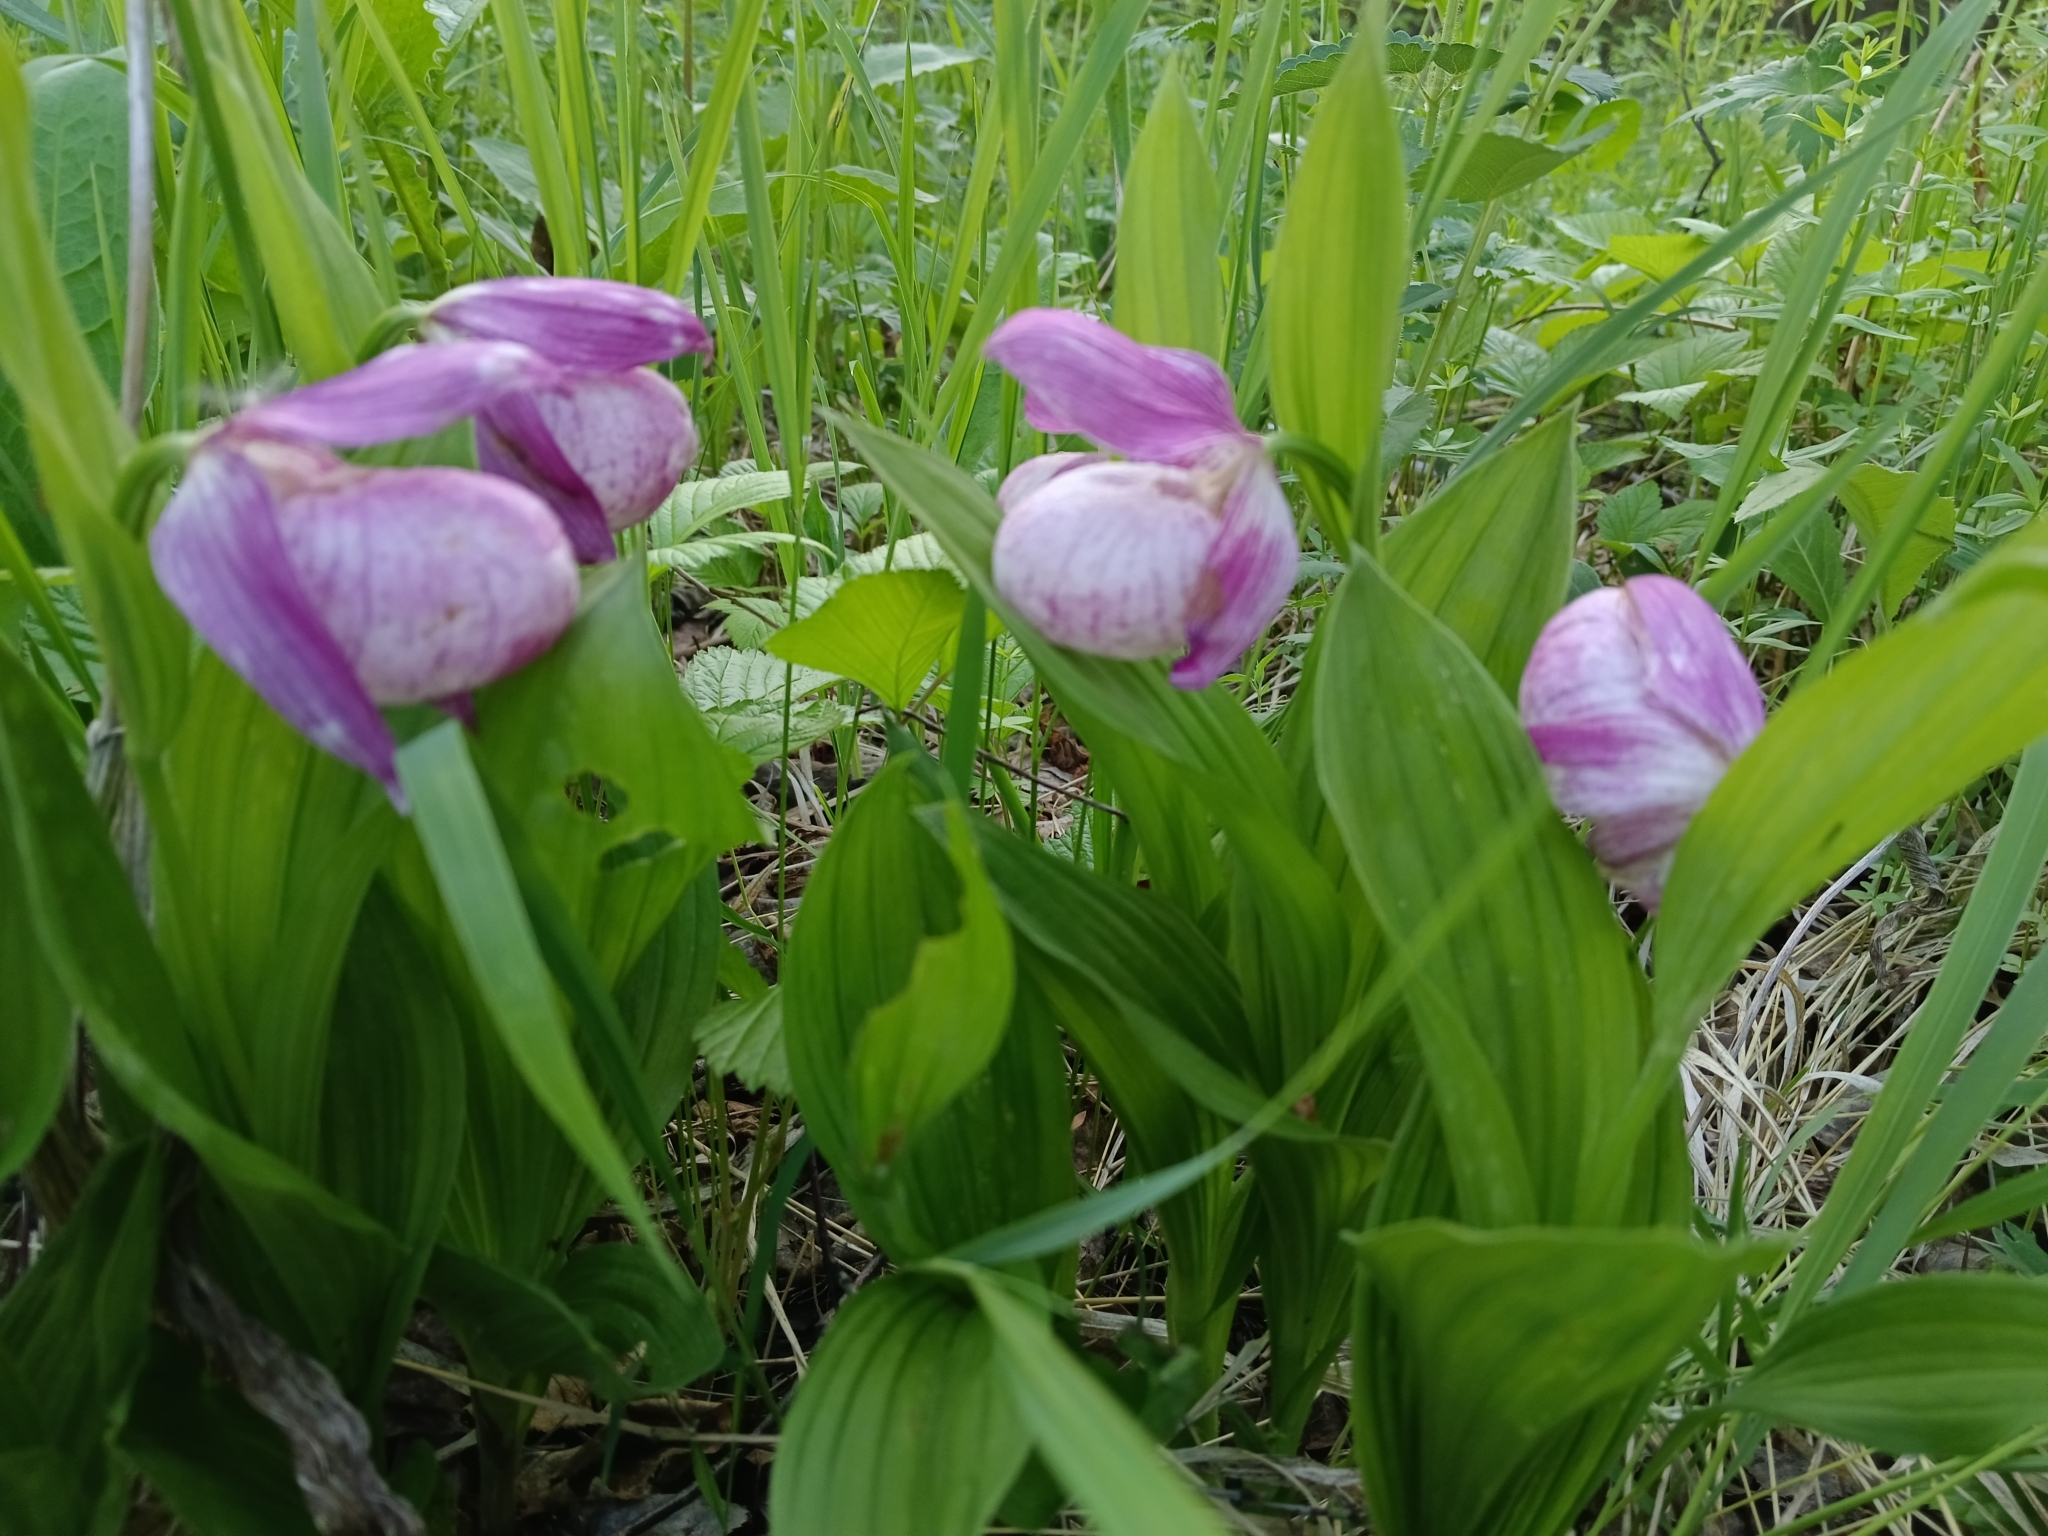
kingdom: Plantae
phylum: Tracheophyta
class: Liliopsida
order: Asparagales
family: Orchidaceae
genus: Cypripedium
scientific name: Cypripedium macranthos
